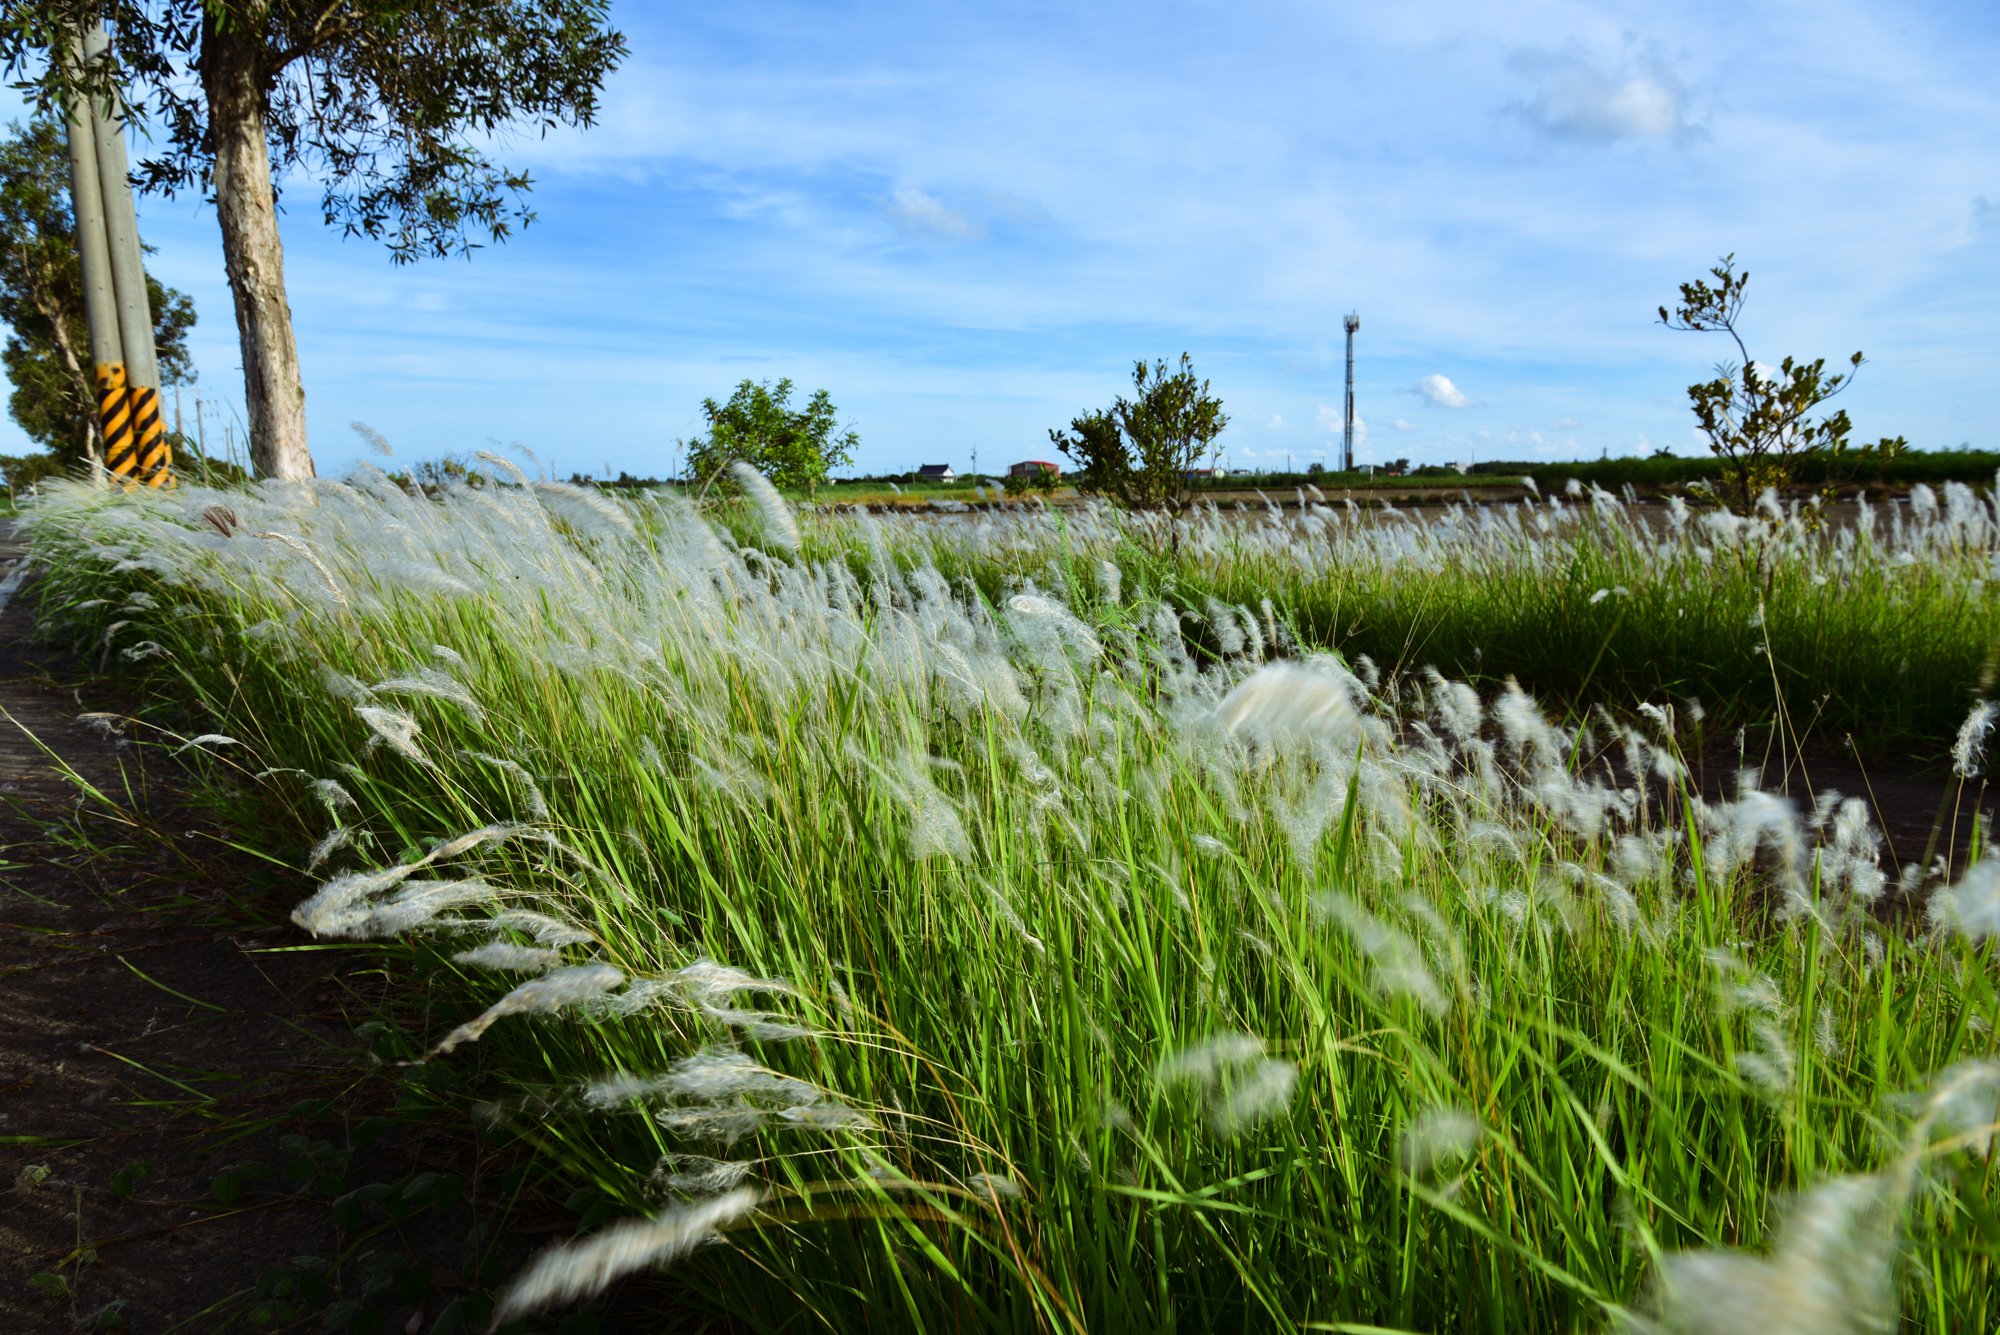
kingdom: Plantae
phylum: Tracheophyta
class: Liliopsida
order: Poales
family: Poaceae
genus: Imperata
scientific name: Imperata cylindrica
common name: Cogongrass
